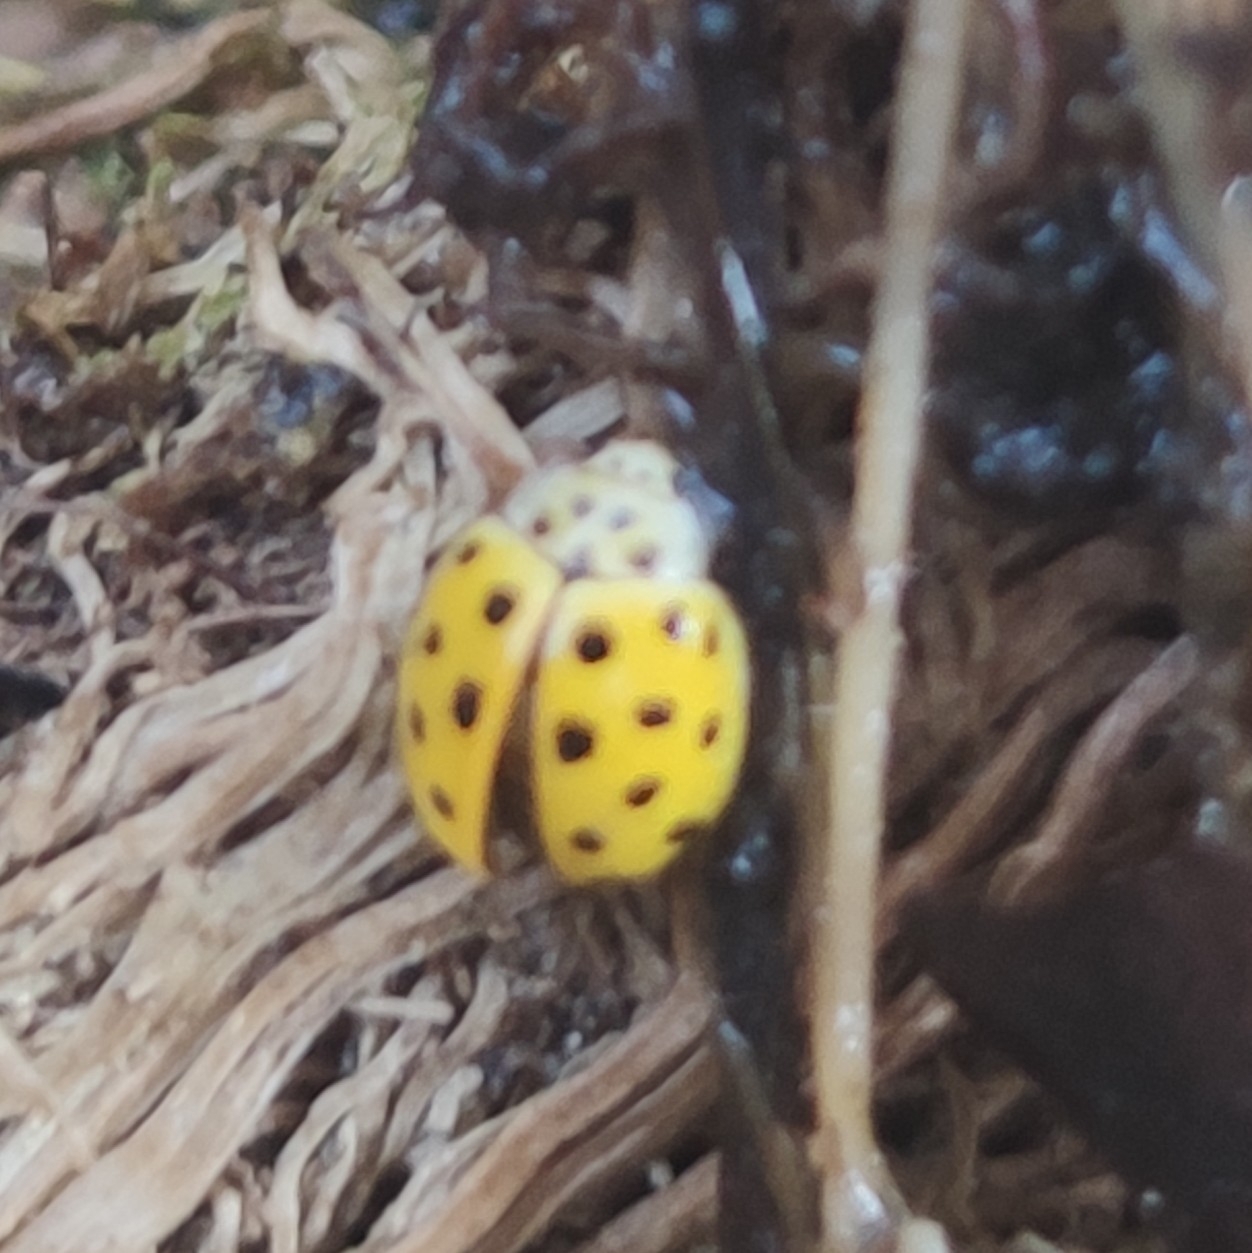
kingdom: Animalia
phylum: Arthropoda
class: Insecta
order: Coleoptera
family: Coccinellidae
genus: Psyllobora
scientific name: Psyllobora vigintiduopunctata
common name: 22-spot ladybird
